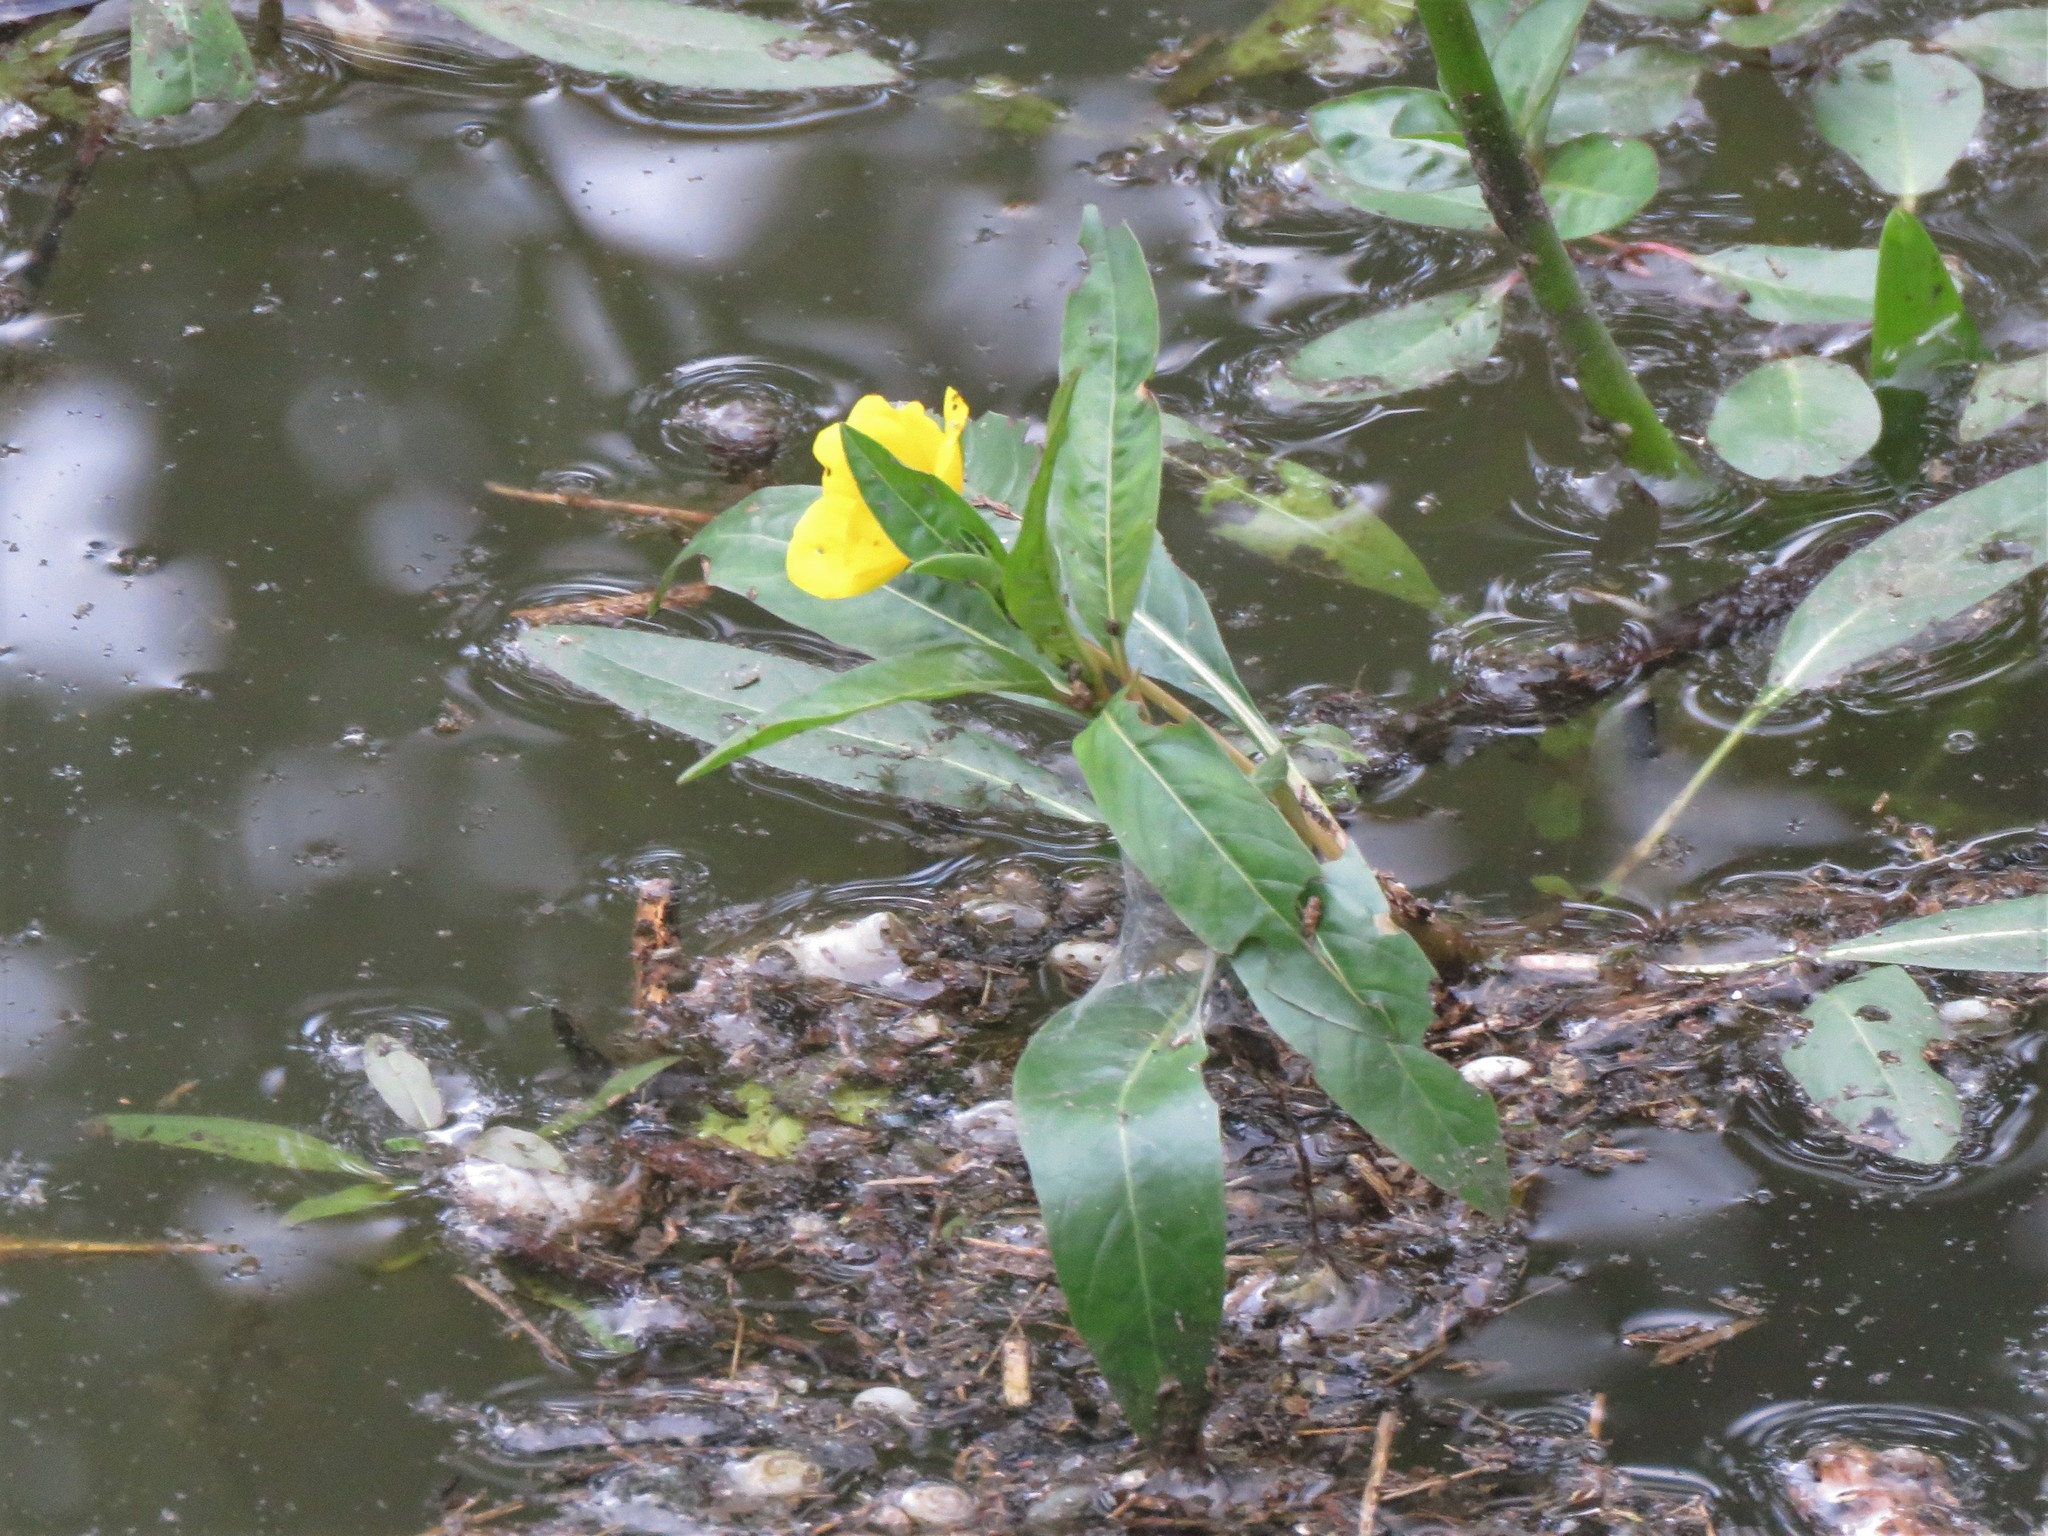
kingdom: Plantae
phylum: Tracheophyta
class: Magnoliopsida
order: Myrtales
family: Onagraceae
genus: Ludwigia
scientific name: Ludwigia peploides
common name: Floating primrose-willow
